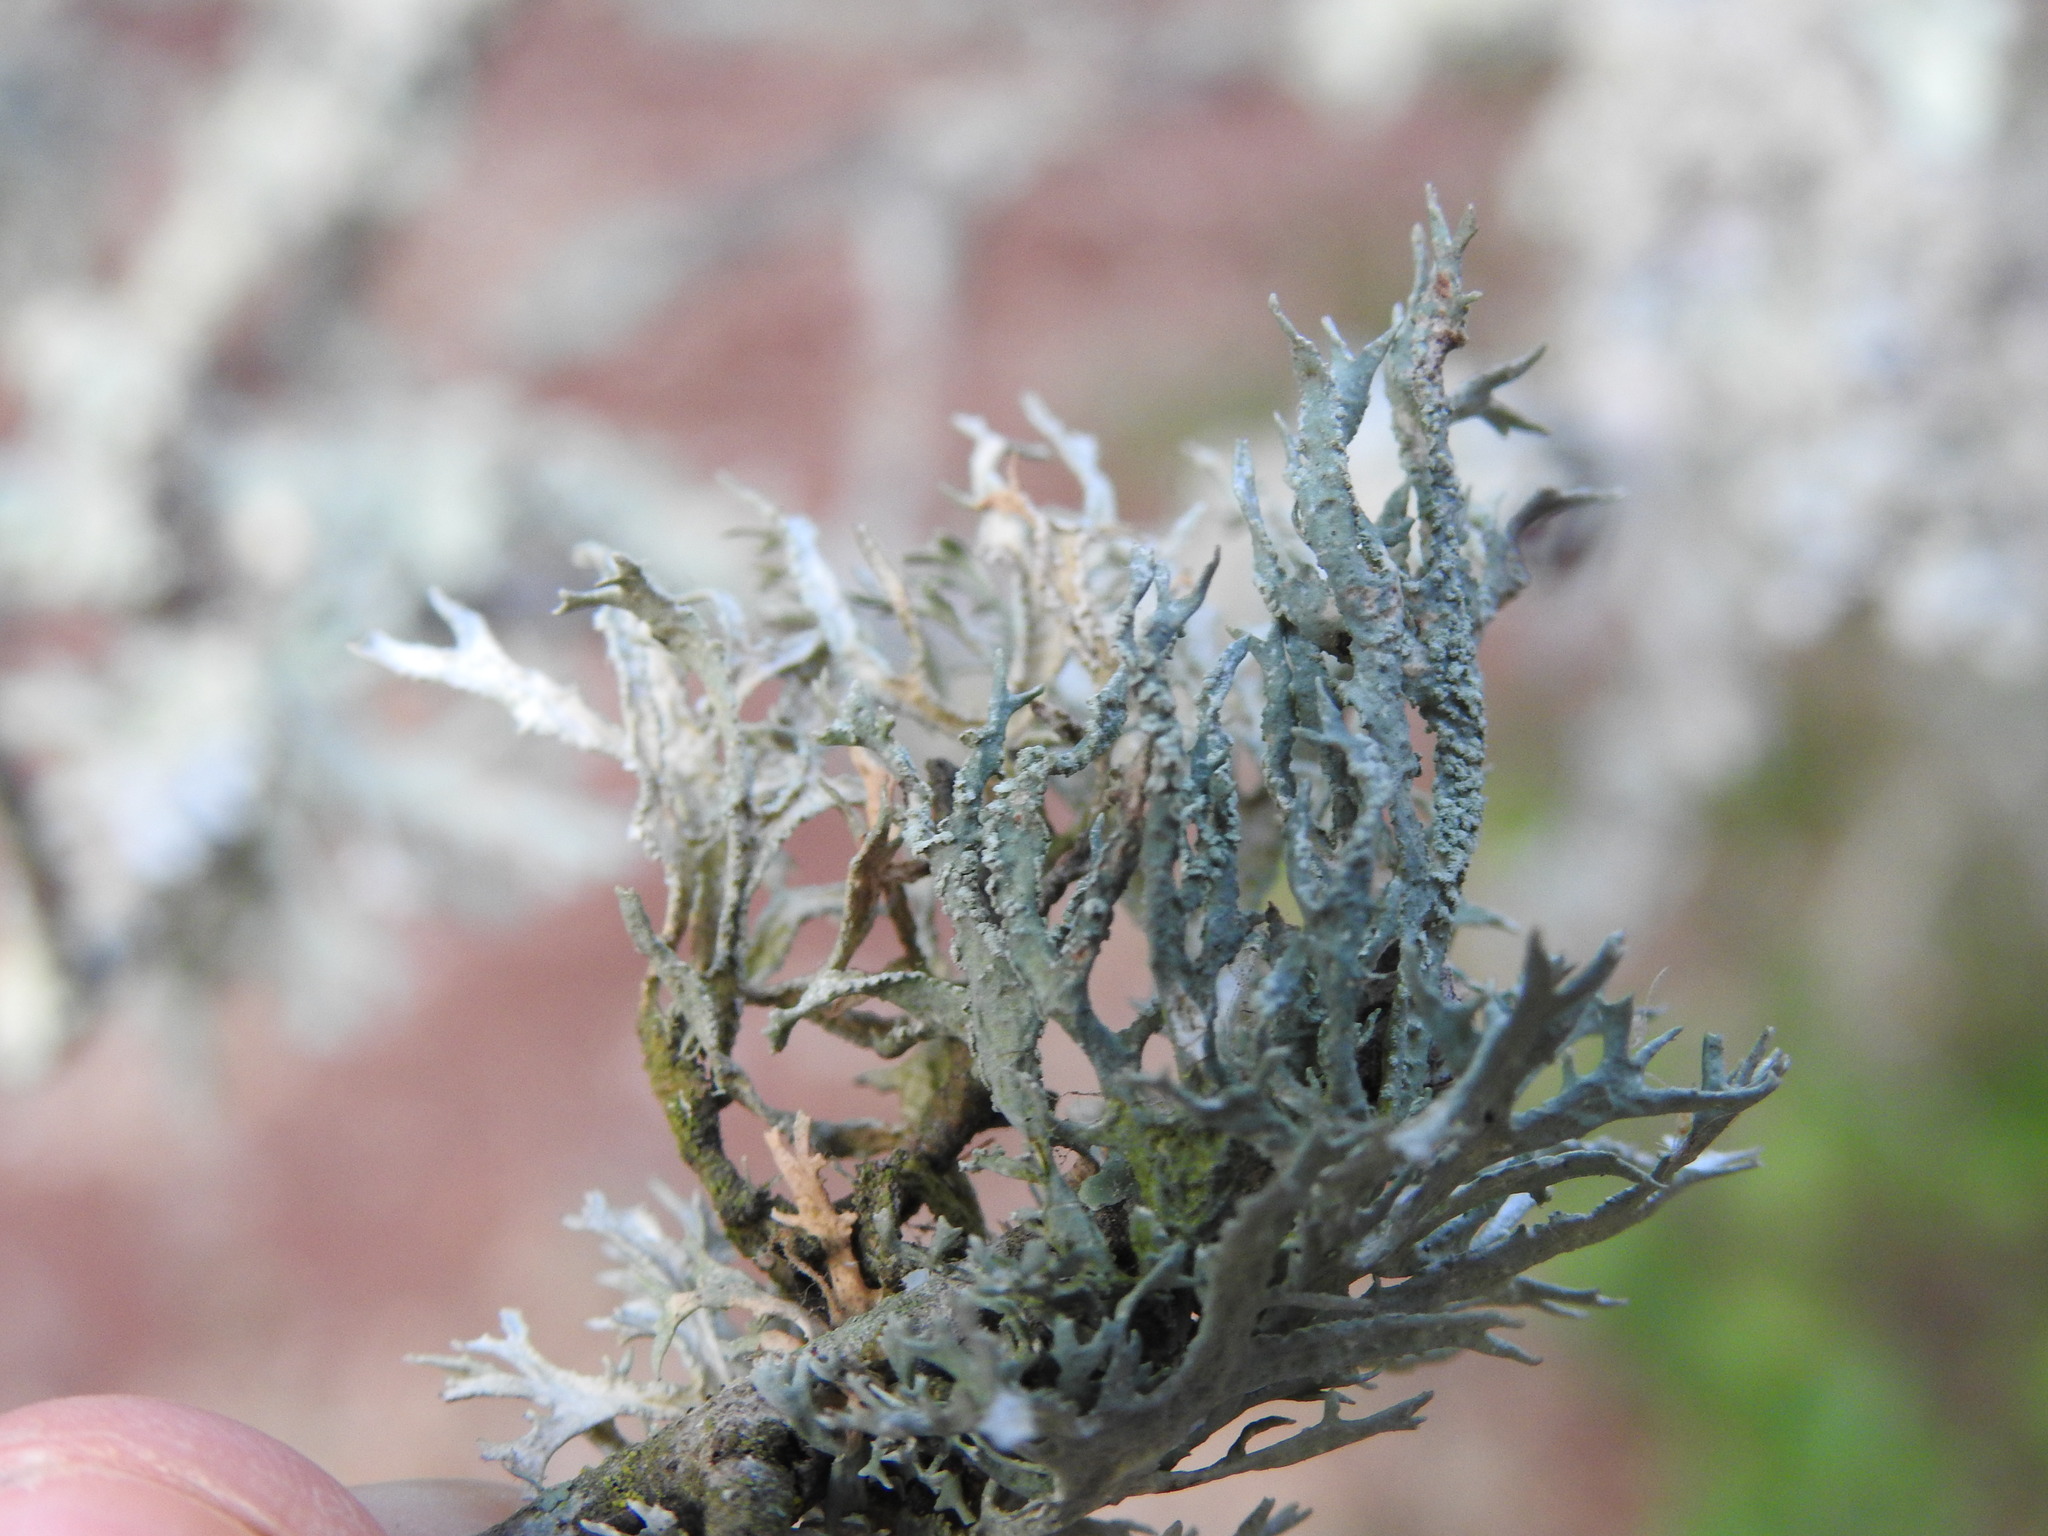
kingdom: Fungi
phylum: Ascomycota
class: Lecanoromycetes
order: Lecanorales
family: Parmeliaceae
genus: Evernia
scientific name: Evernia prunastri
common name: Oak moss
